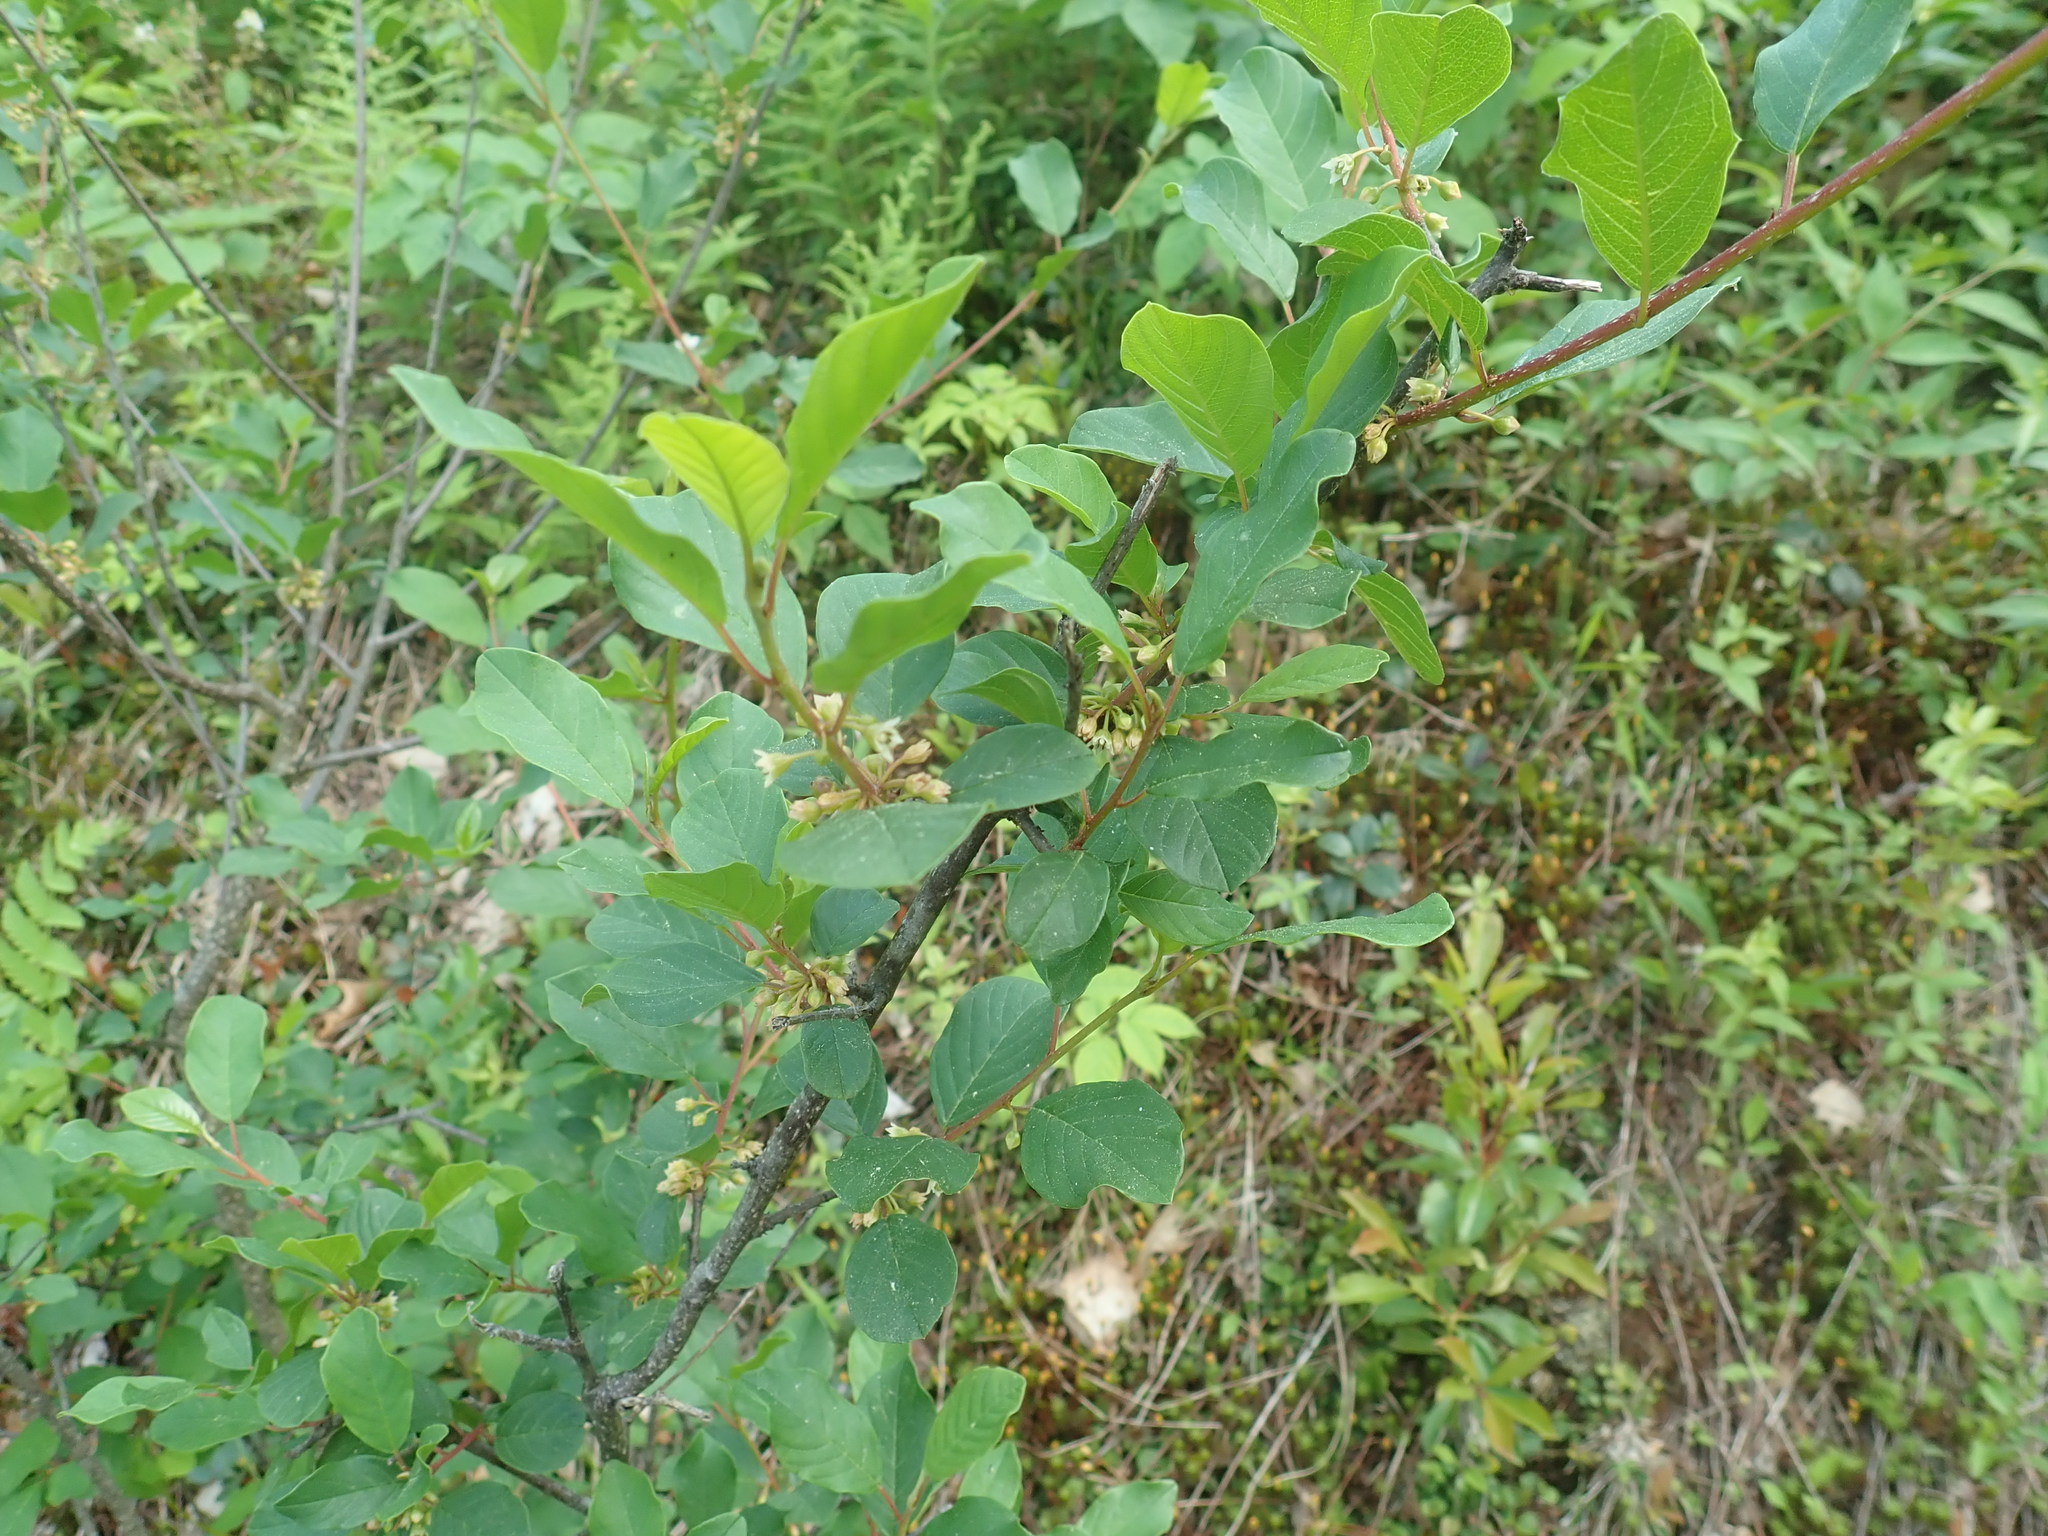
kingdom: Plantae
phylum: Tracheophyta
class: Magnoliopsida
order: Rosales
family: Rhamnaceae
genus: Frangula
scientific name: Frangula alnus
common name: Alder buckthorn
